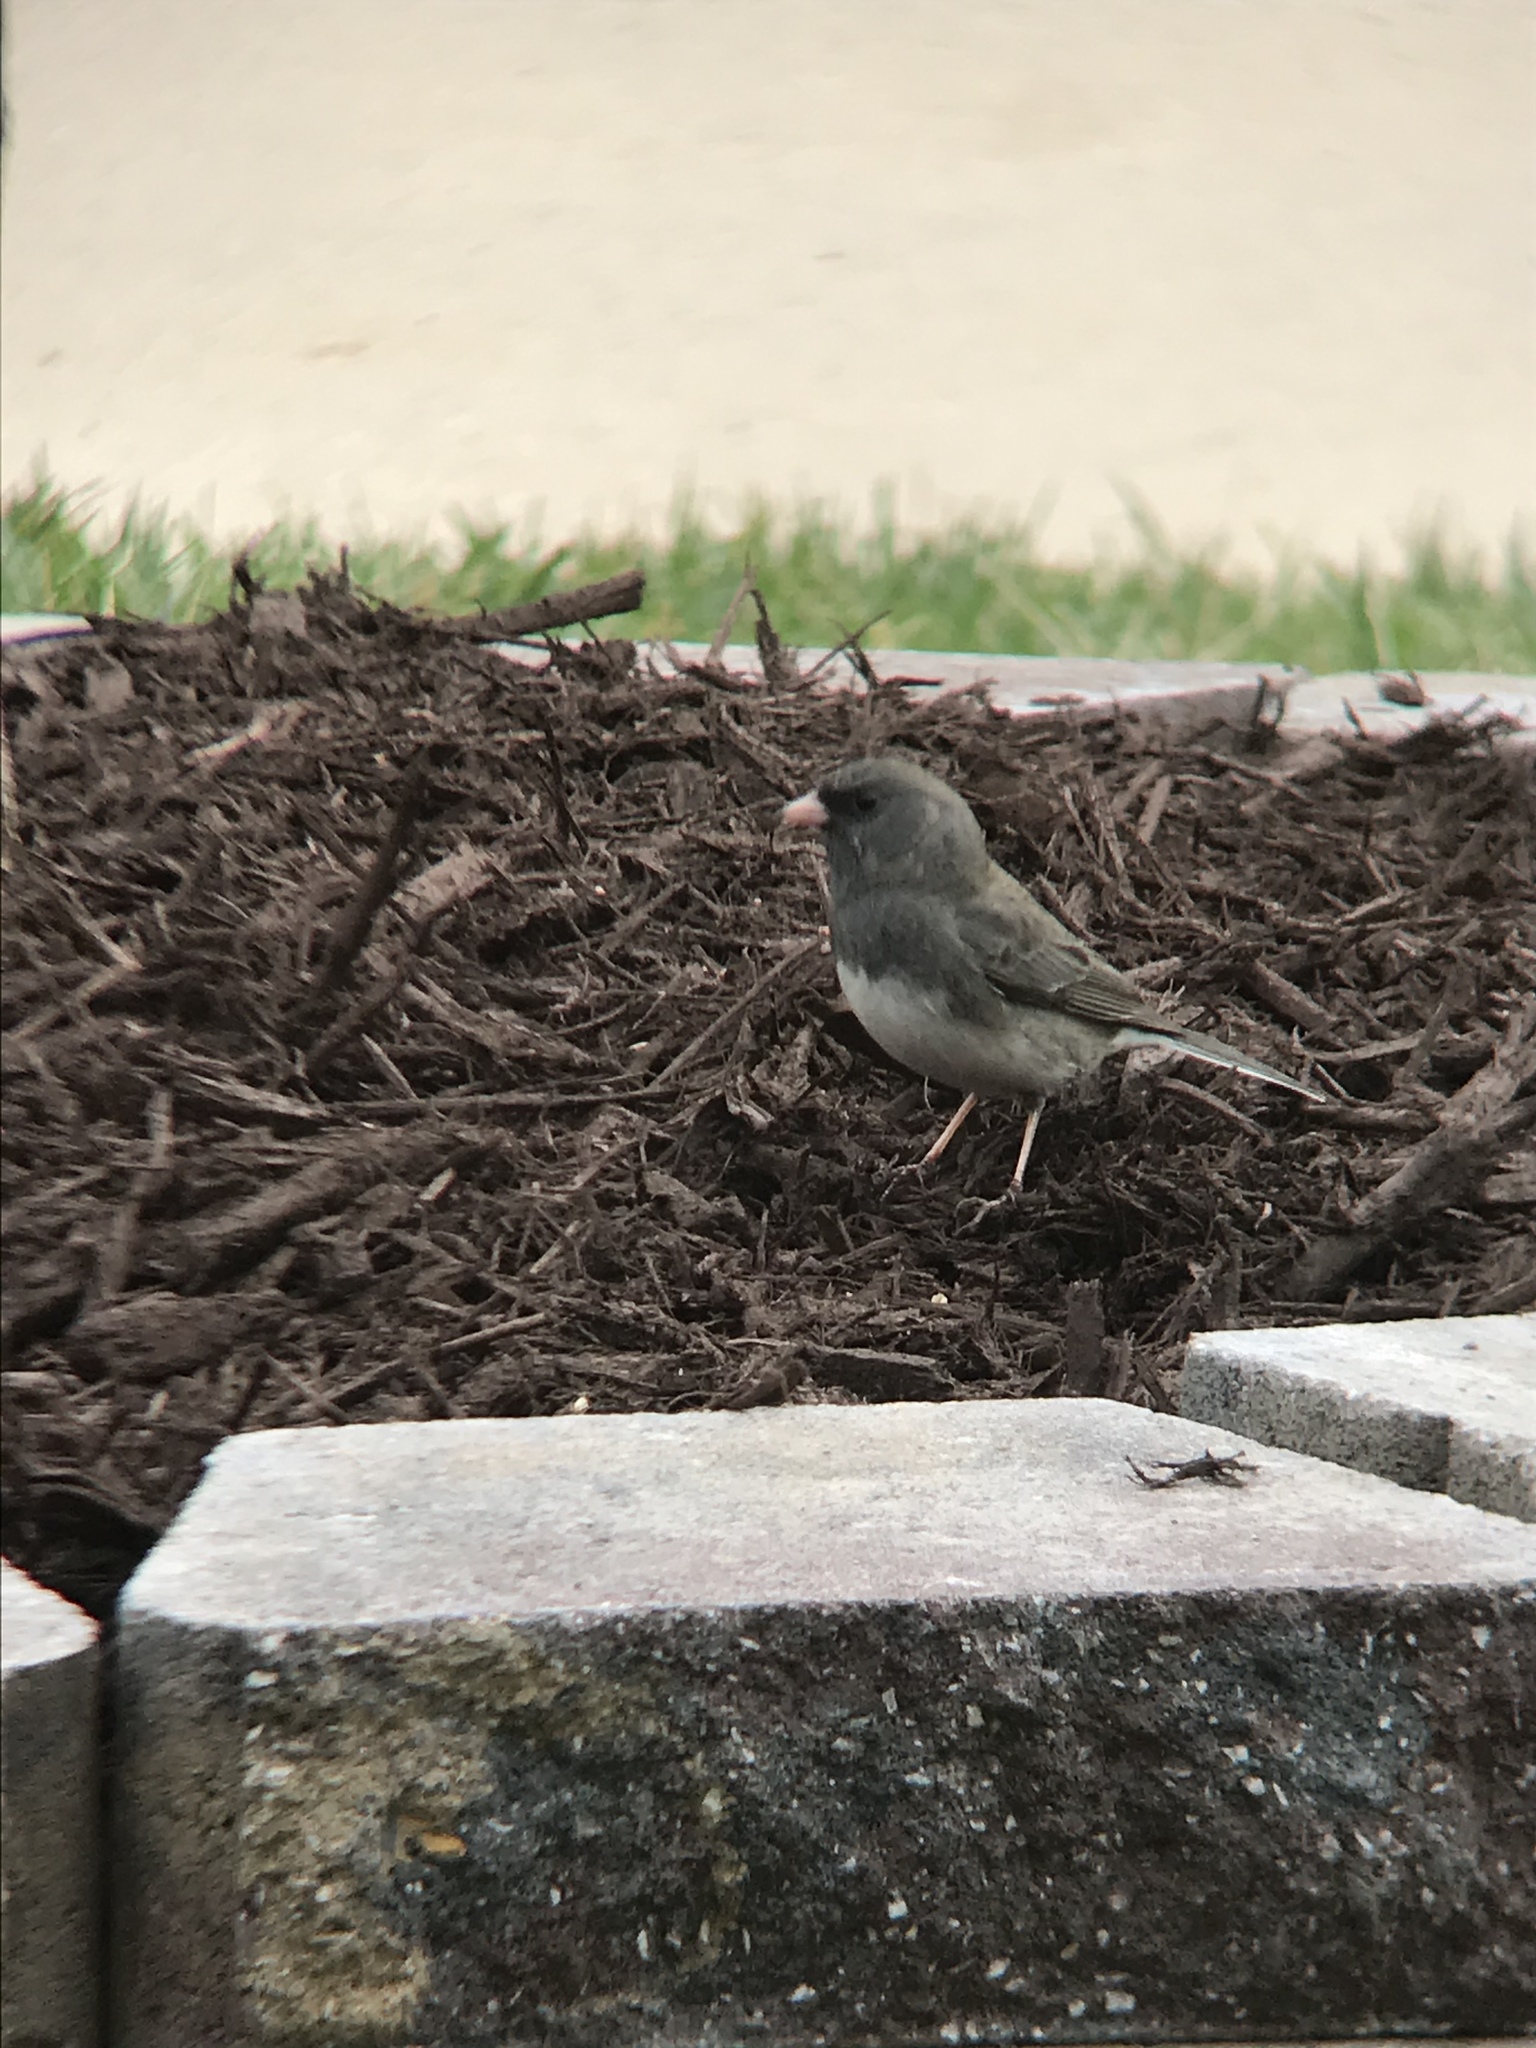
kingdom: Animalia
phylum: Chordata
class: Aves
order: Passeriformes
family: Passerellidae
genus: Junco
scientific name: Junco hyemalis
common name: Dark-eyed junco
